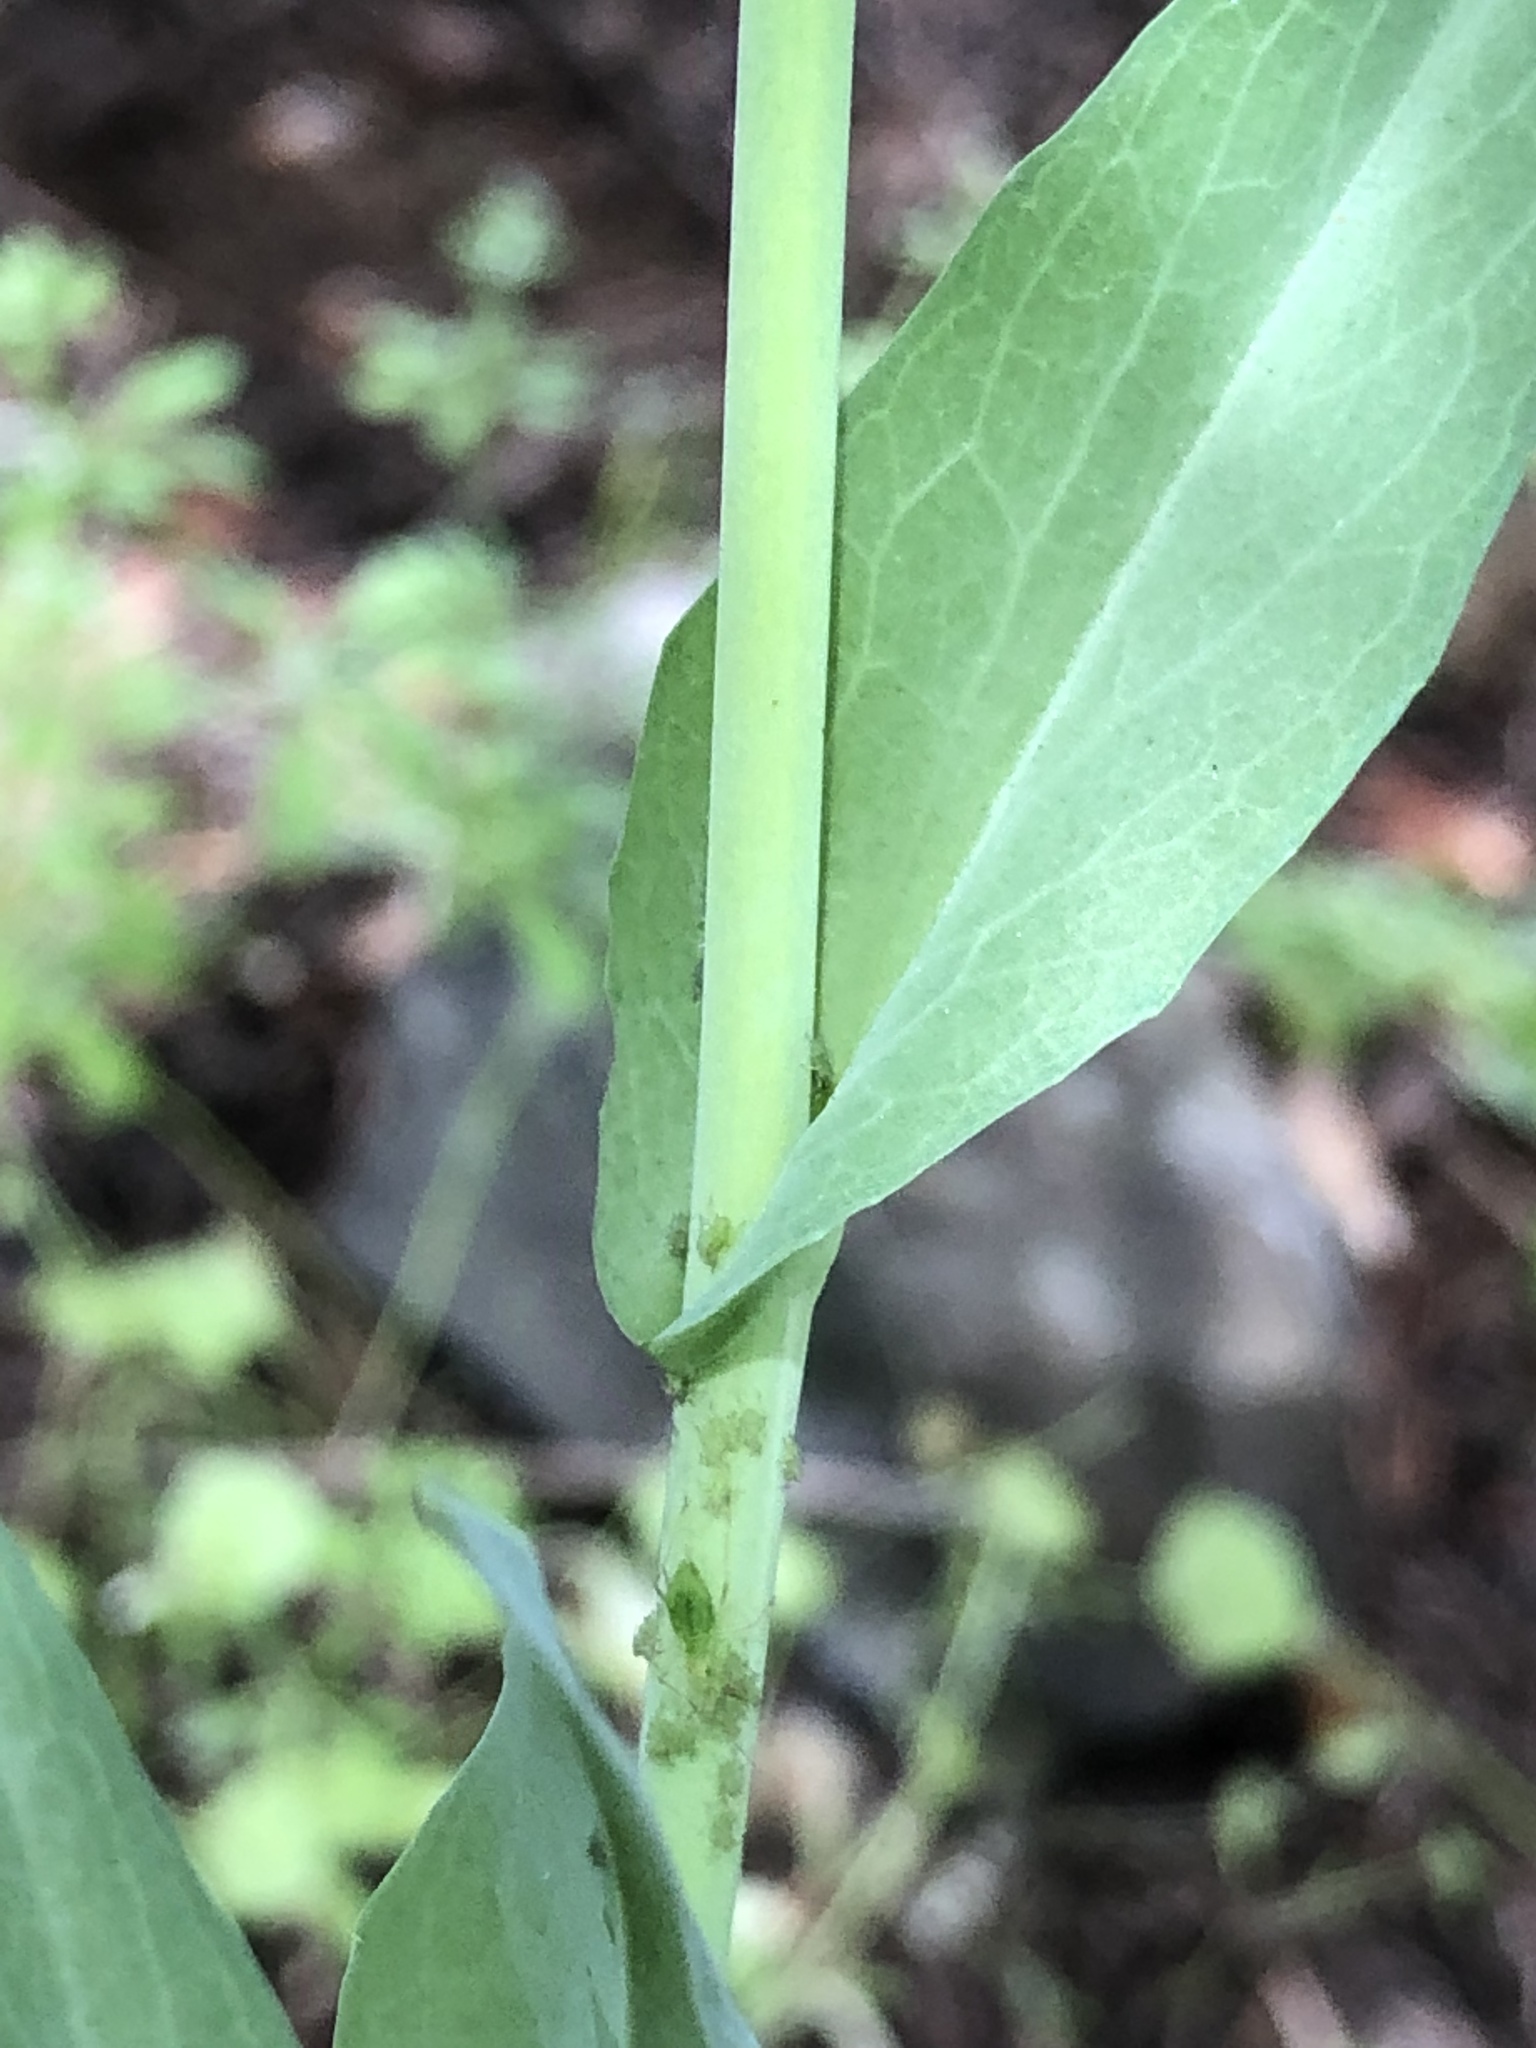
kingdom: Plantae
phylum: Tracheophyta
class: Magnoliopsida
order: Brassicales
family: Brassicaceae
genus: Turritis
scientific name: Turritis glabra
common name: Tower rockcress
